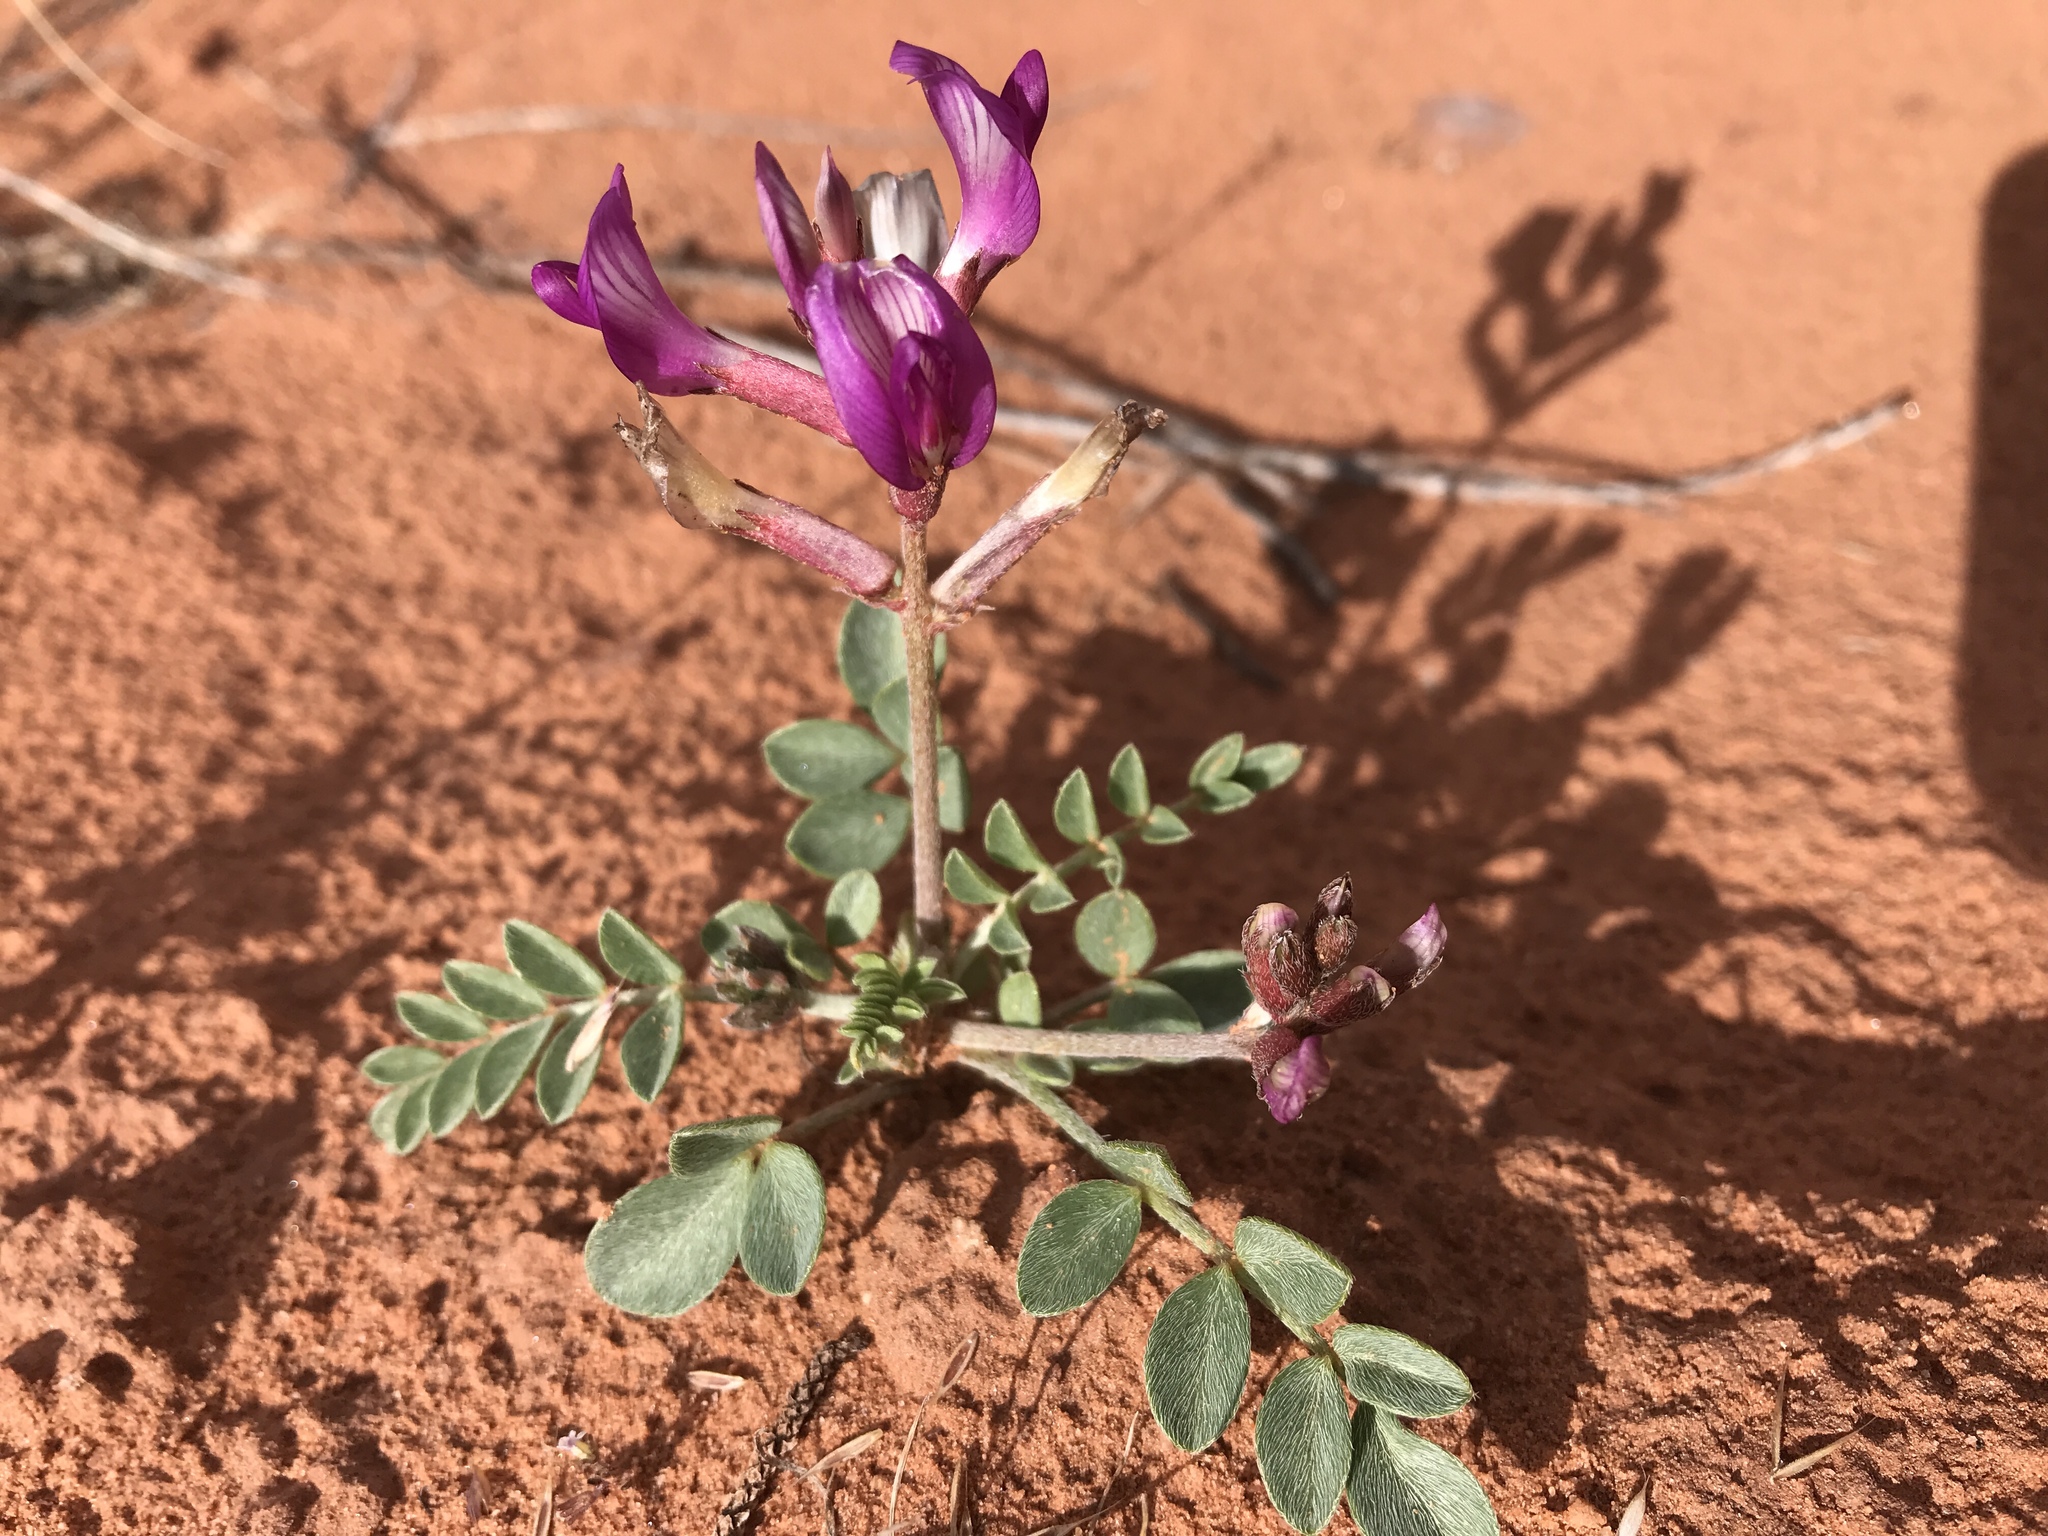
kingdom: Plantae
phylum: Tracheophyta
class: Magnoliopsida
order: Fabales
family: Fabaceae
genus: Astragalus
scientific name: Astragalus amphioxys
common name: Crescent milk-vetch
